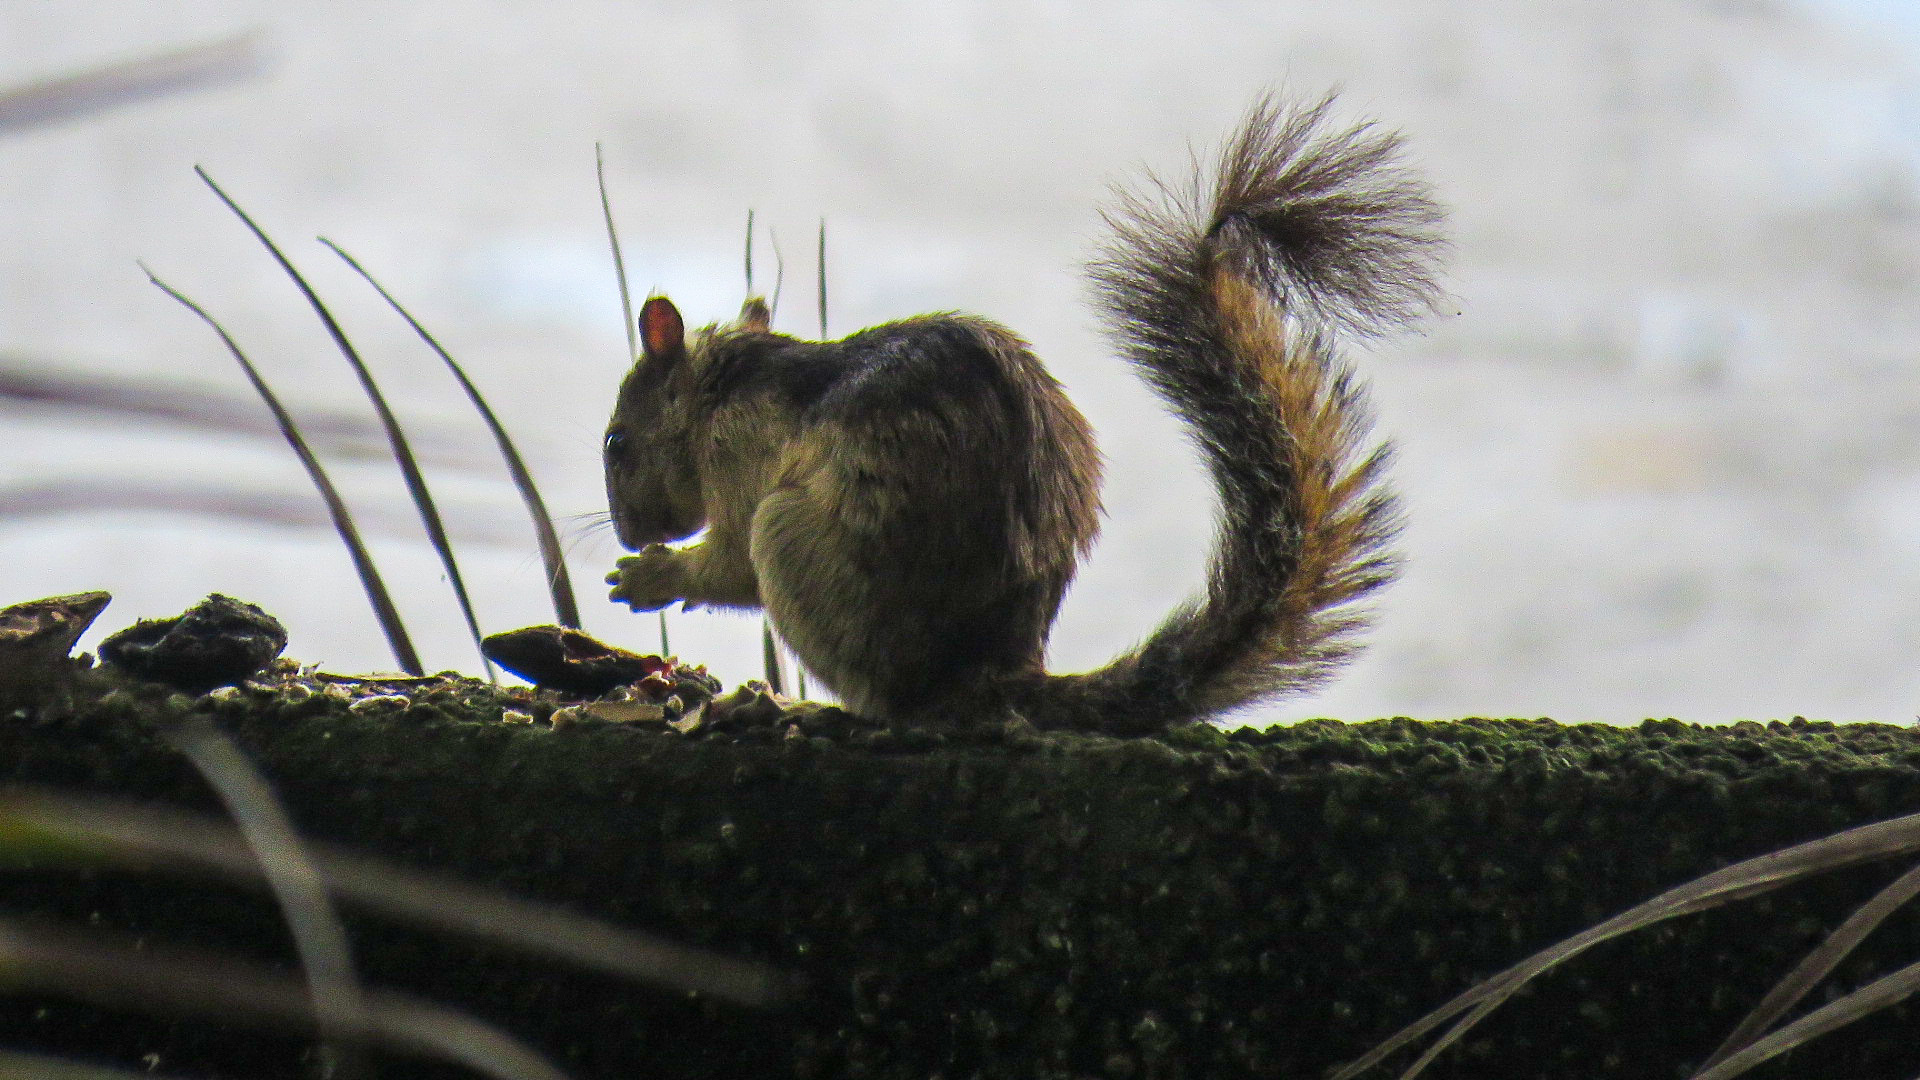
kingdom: Animalia
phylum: Chordata
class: Mammalia
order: Rodentia
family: Sciuridae
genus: Sciurus
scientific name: Sciurus variegatoides
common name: Variegated squirrel
